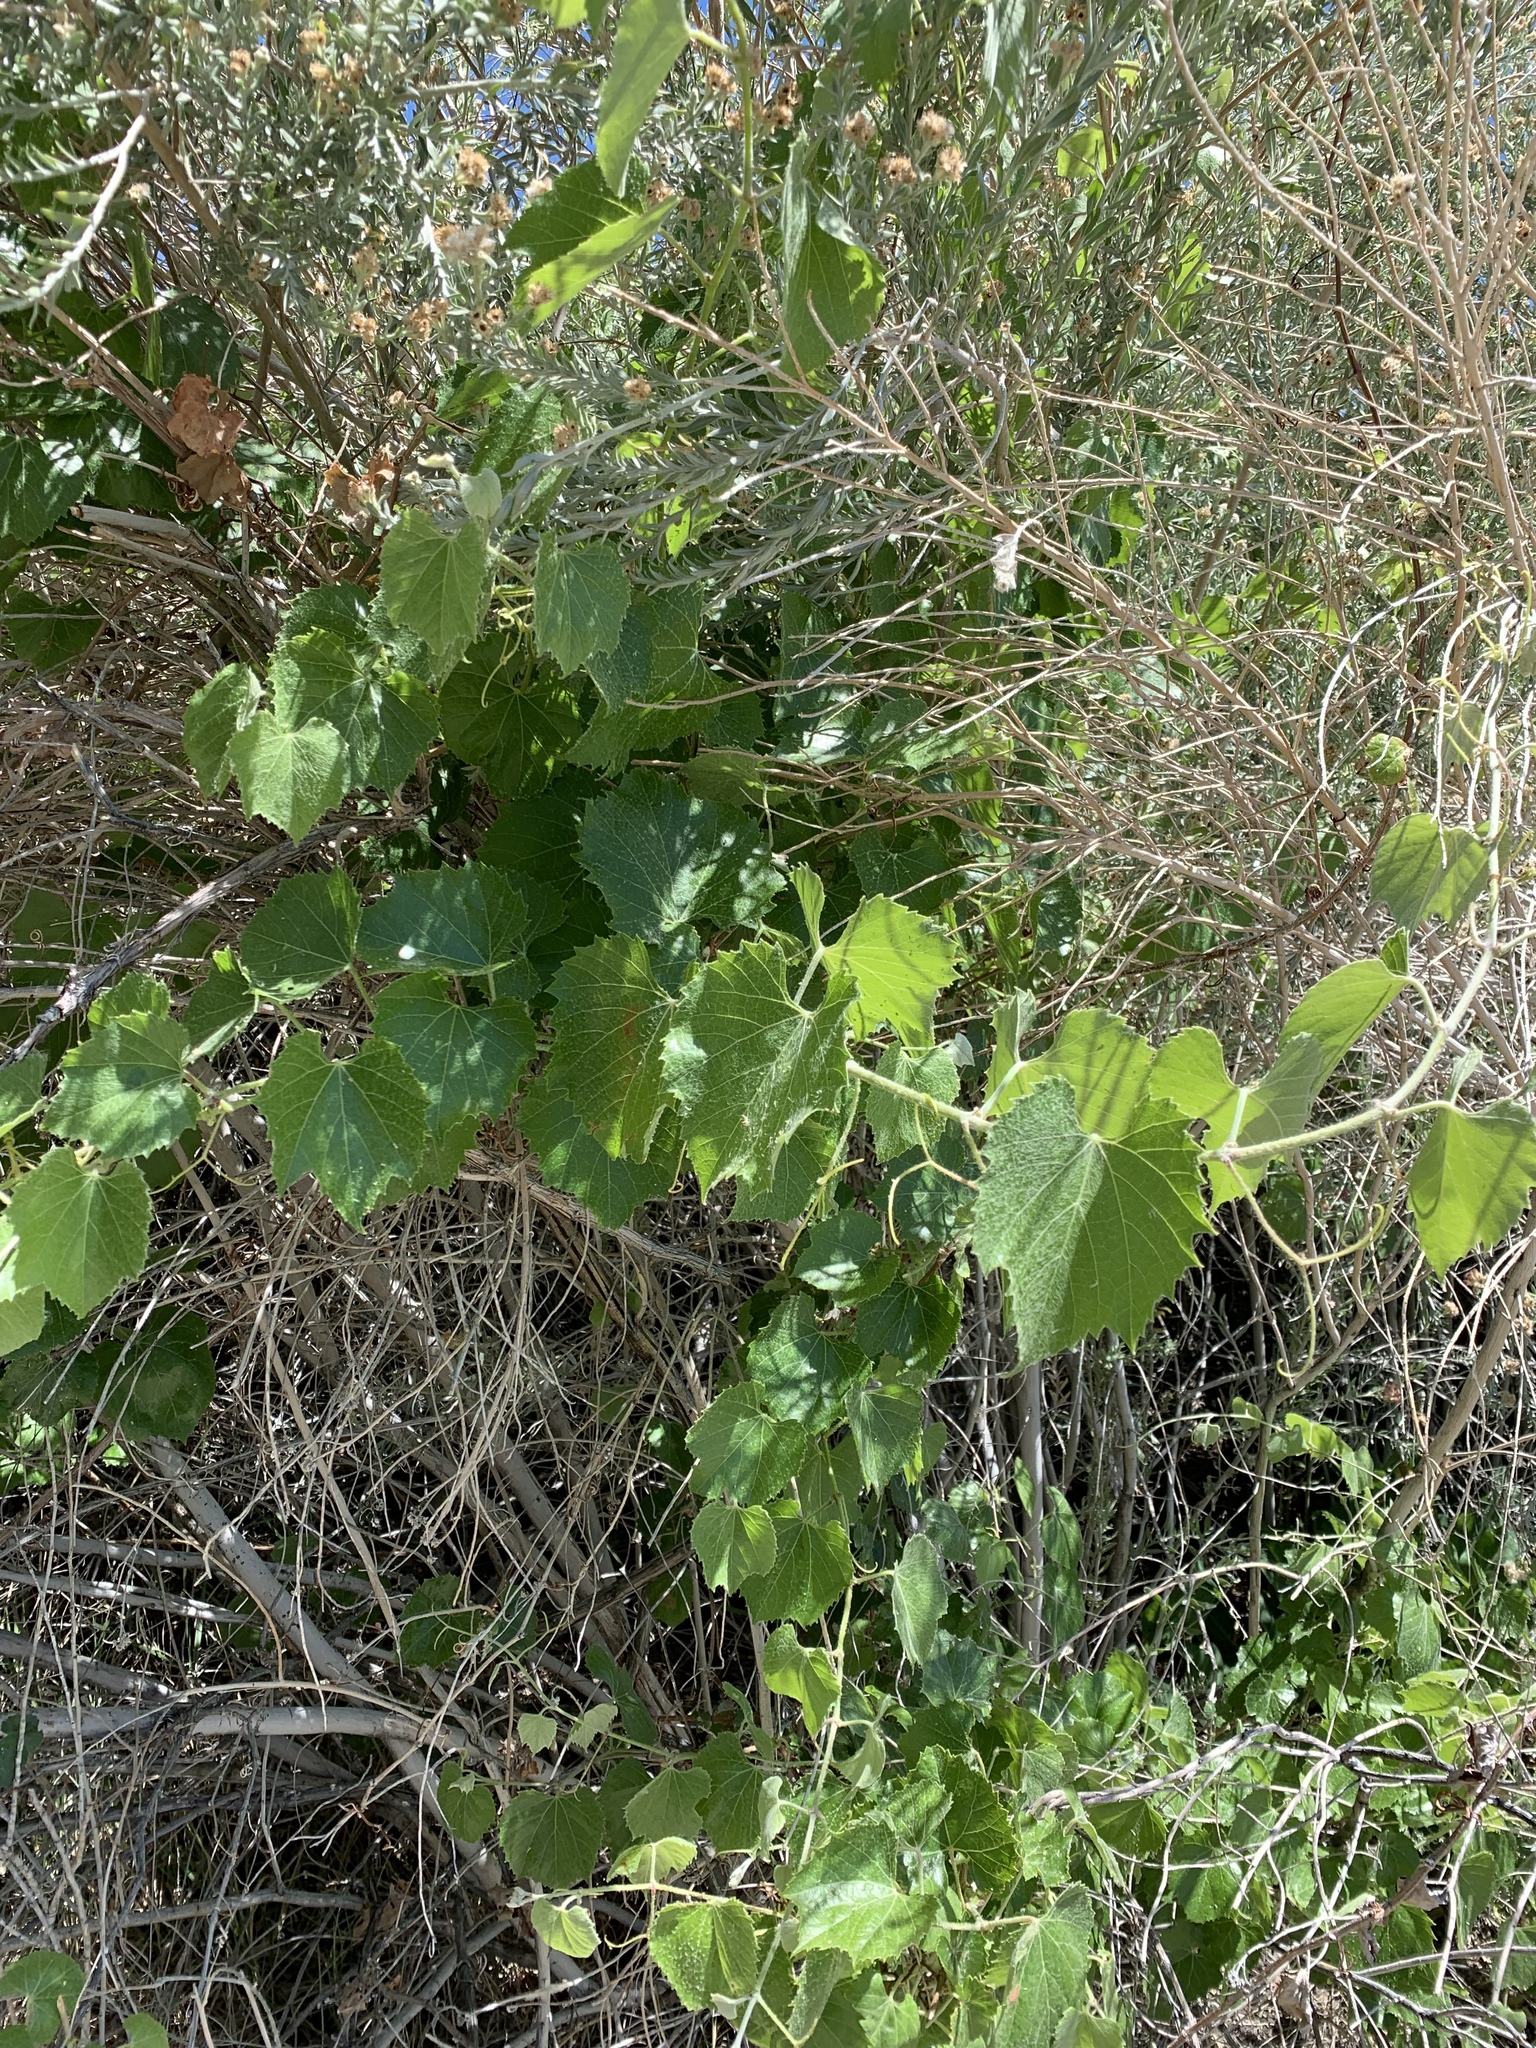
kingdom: Plantae
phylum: Tracheophyta
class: Magnoliopsida
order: Vitales
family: Vitaceae
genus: Vitis
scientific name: Vitis arizonica
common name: Canyon grape
